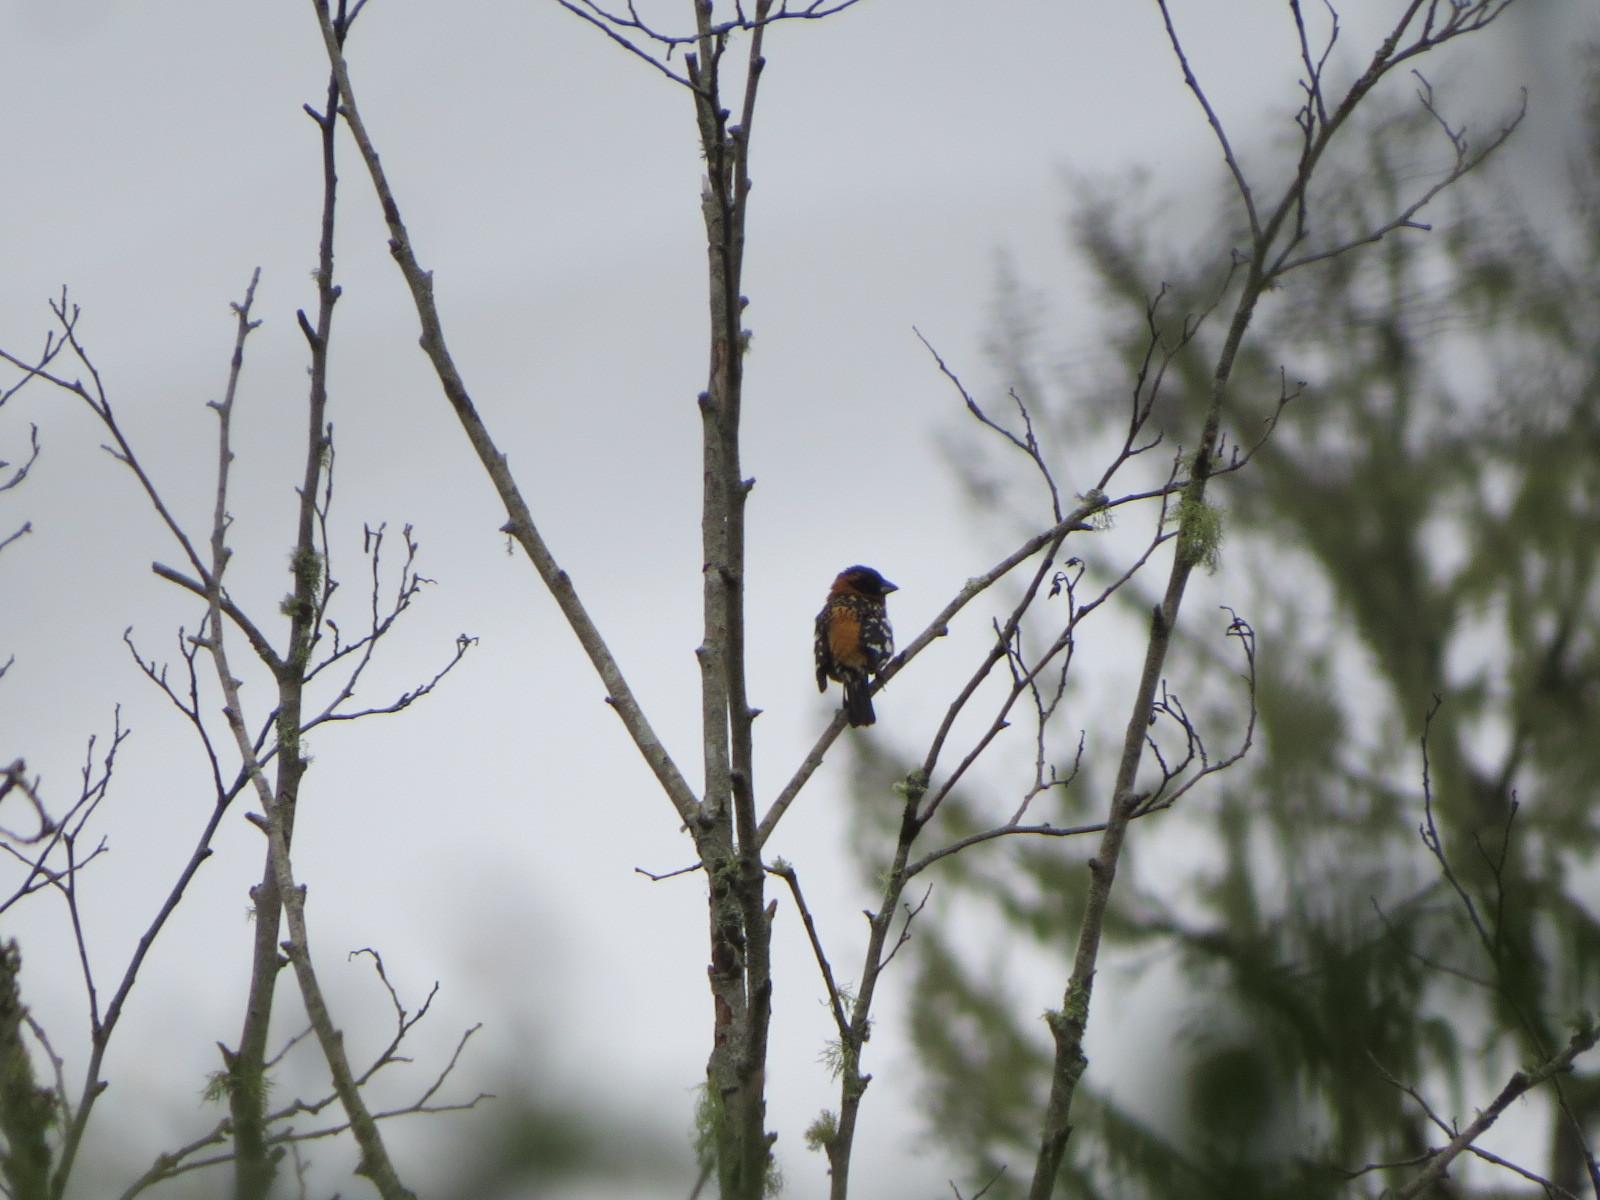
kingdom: Animalia
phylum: Chordata
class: Aves
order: Passeriformes
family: Cardinalidae
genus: Pheucticus
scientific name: Pheucticus melanocephalus
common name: Black-headed grosbeak
